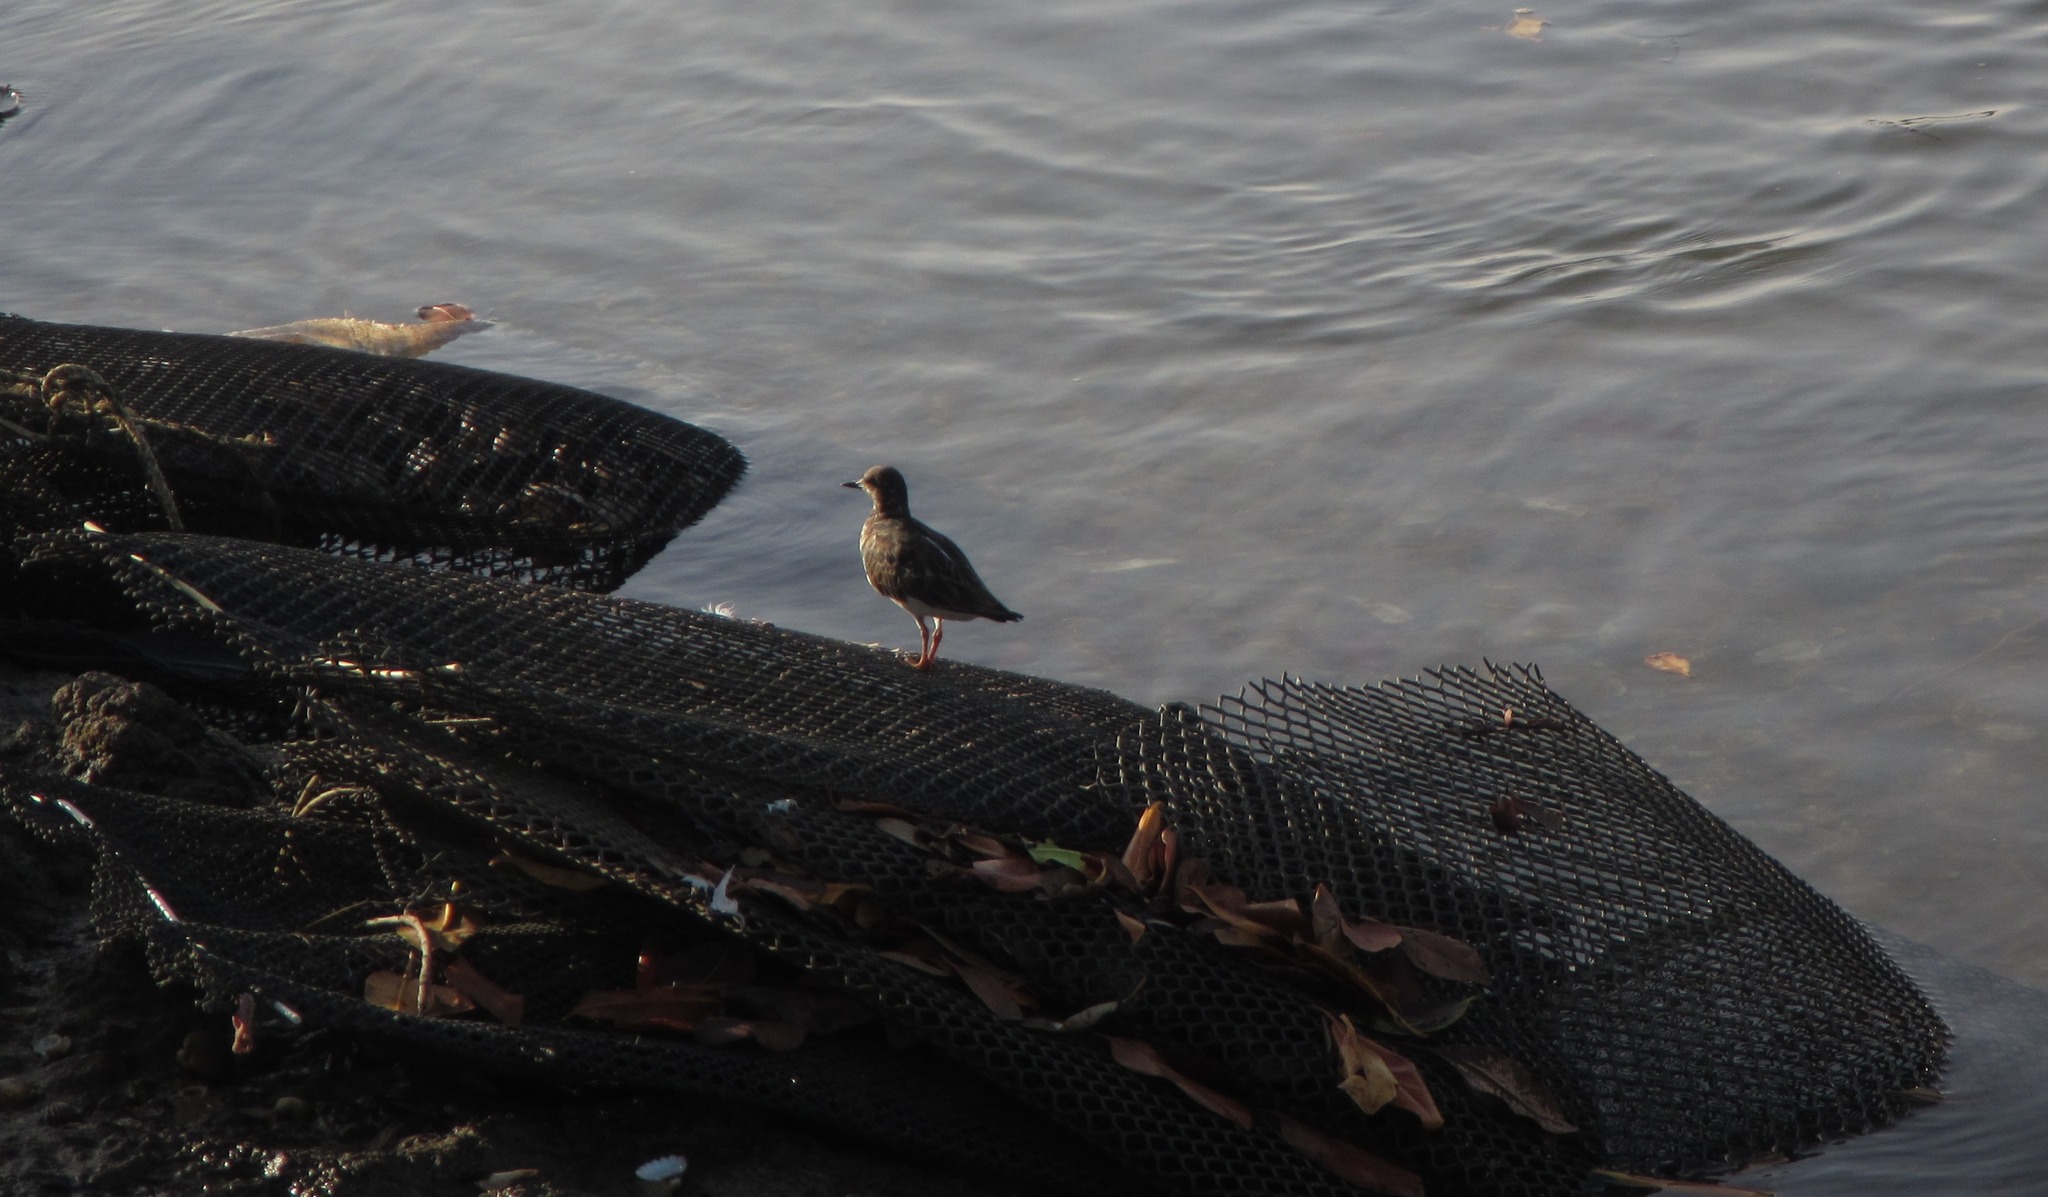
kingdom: Animalia
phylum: Chordata
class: Aves
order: Charadriiformes
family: Scolopacidae
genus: Arenaria
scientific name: Arenaria interpres
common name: Ruddy turnstone
